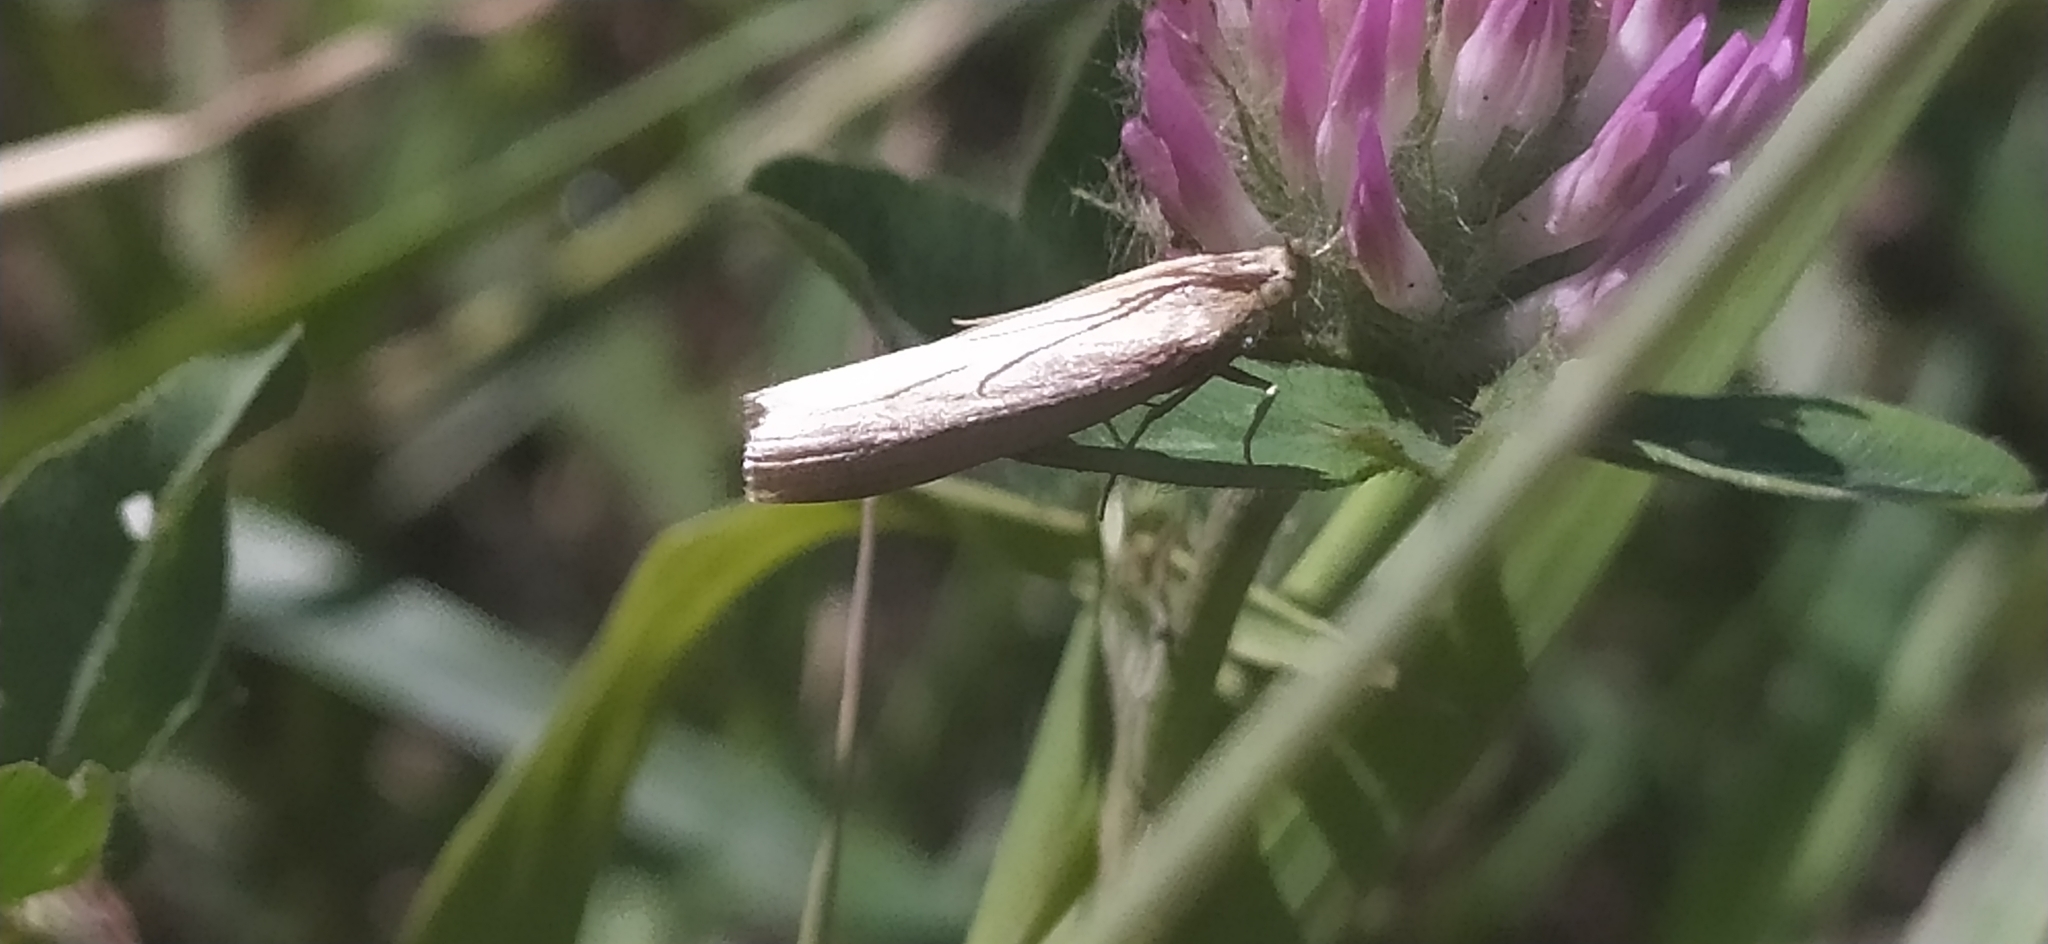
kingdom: Animalia
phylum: Arthropoda
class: Insecta
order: Lepidoptera
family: Pyralidae
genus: Oncocera
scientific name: Oncocera semirubella
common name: Rosy-striped knot-horn
